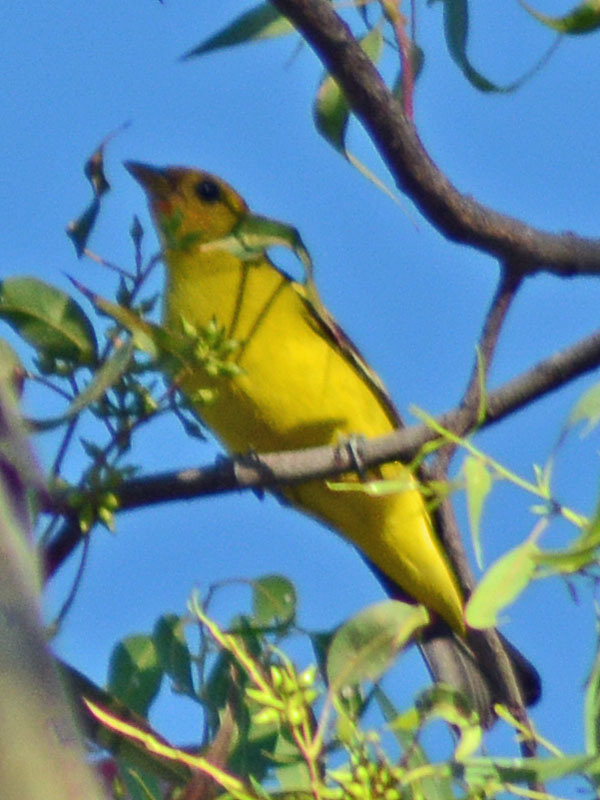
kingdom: Animalia
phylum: Chordata
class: Aves
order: Passeriformes
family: Cardinalidae
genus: Piranga
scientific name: Piranga ludoviciana
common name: Western tanager
